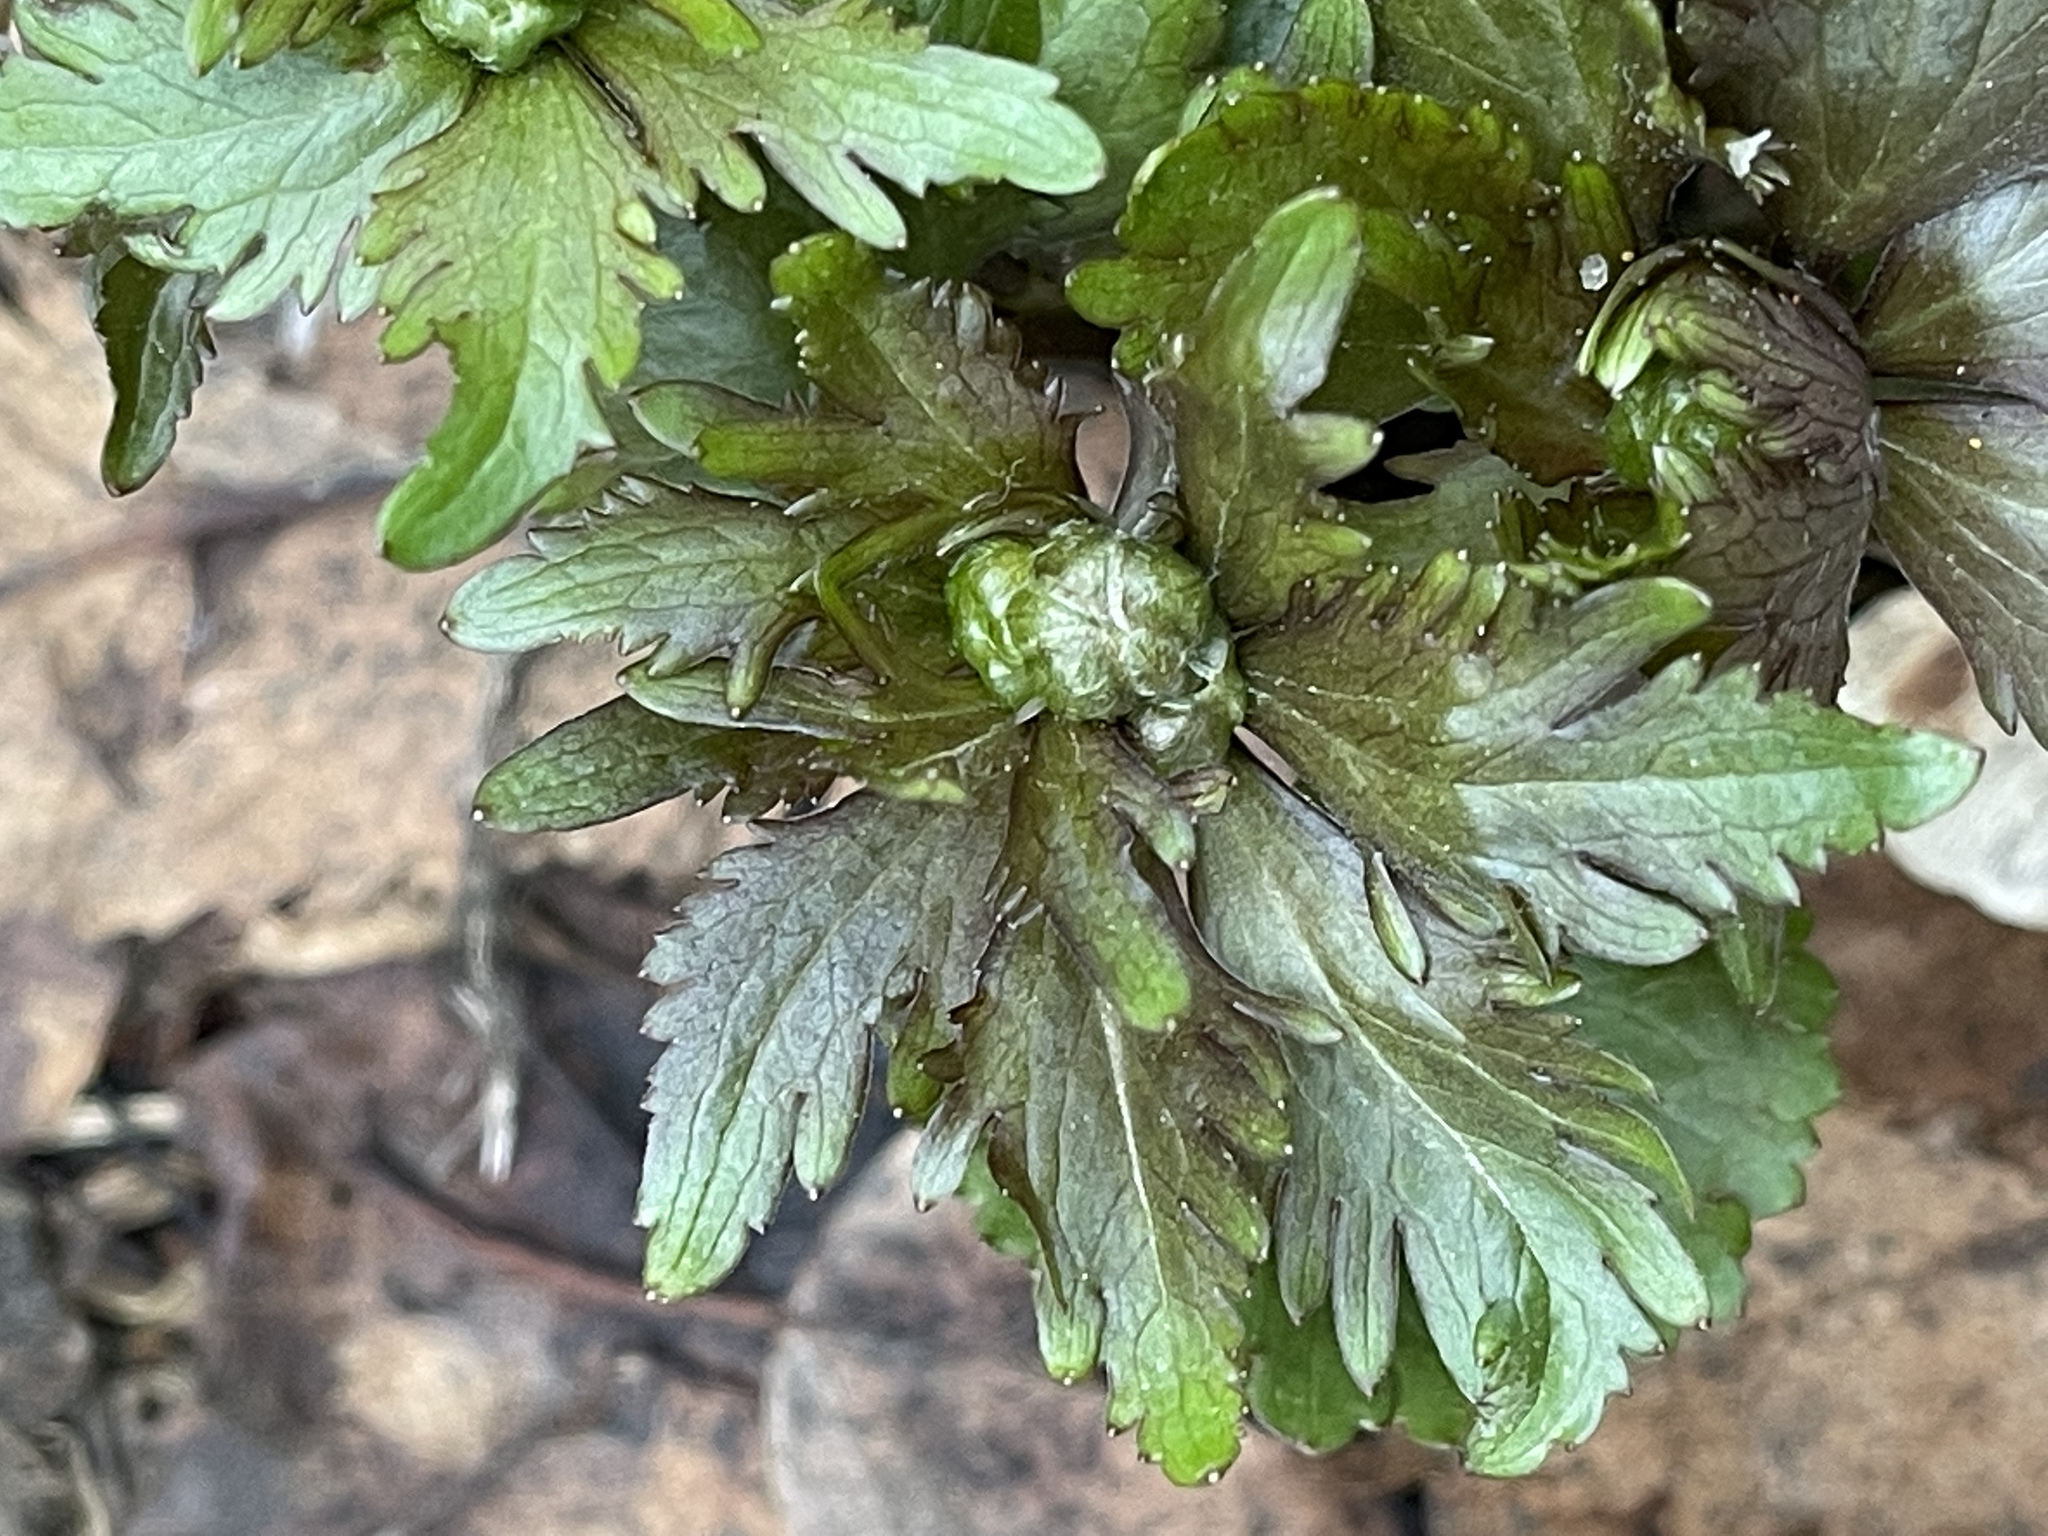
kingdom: Plantae
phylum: Tracheophyta
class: Magnoliopsida
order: Ranunculales
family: Ranunculaceae
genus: Ranunculus
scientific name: Ranunculus cassubicus
